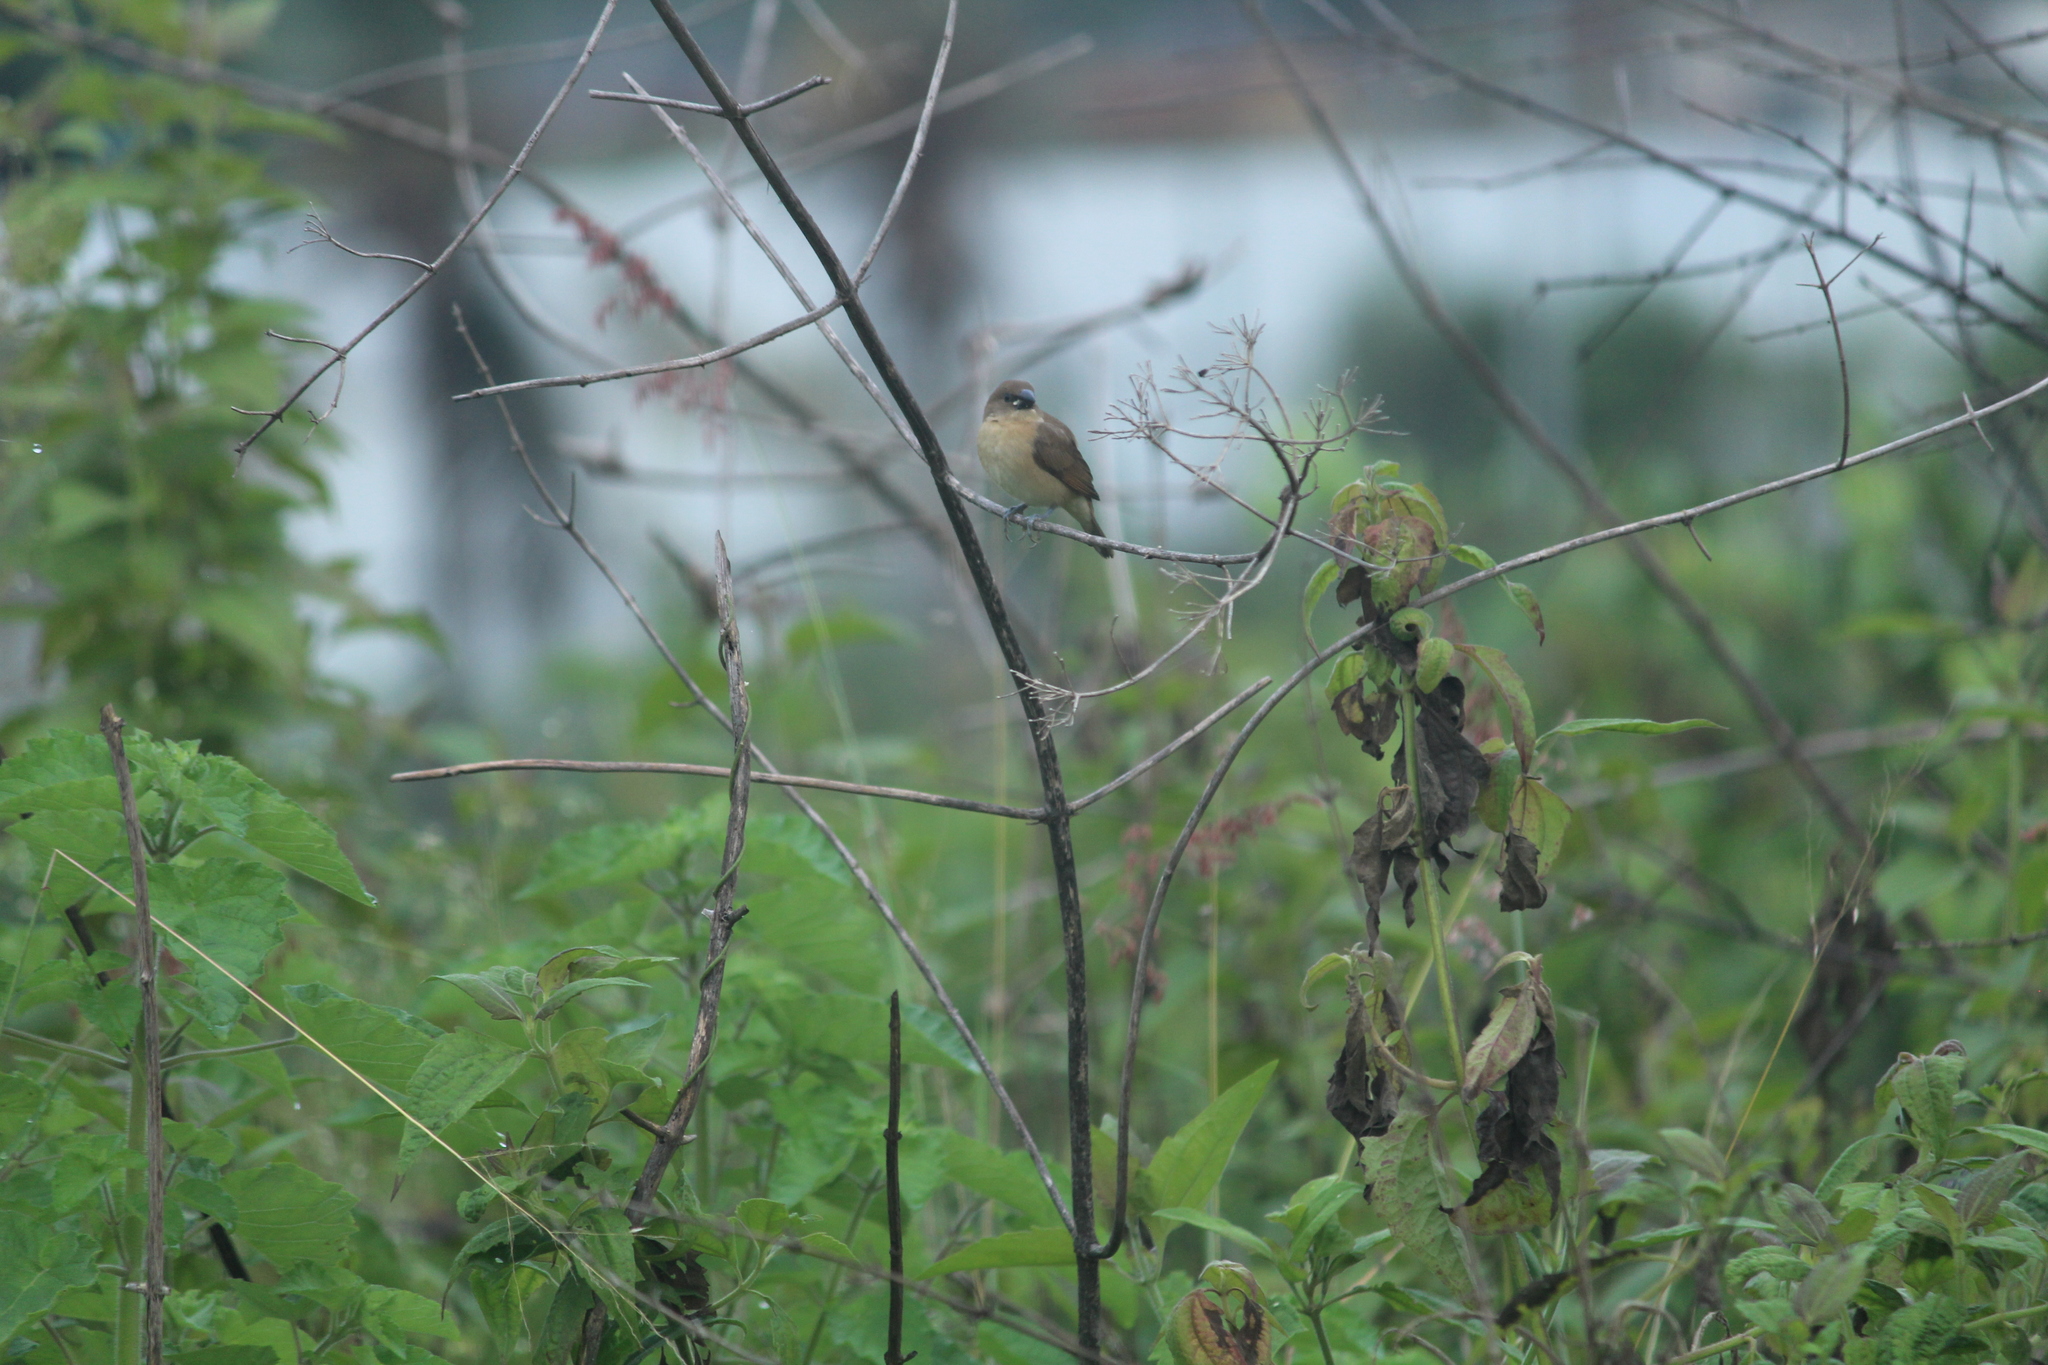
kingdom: Animalia
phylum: Chordata
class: Aves
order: Passeriformes
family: Estrildidae
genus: Lonchura
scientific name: Lonchura punctulata
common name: Scaly-breasted munia
